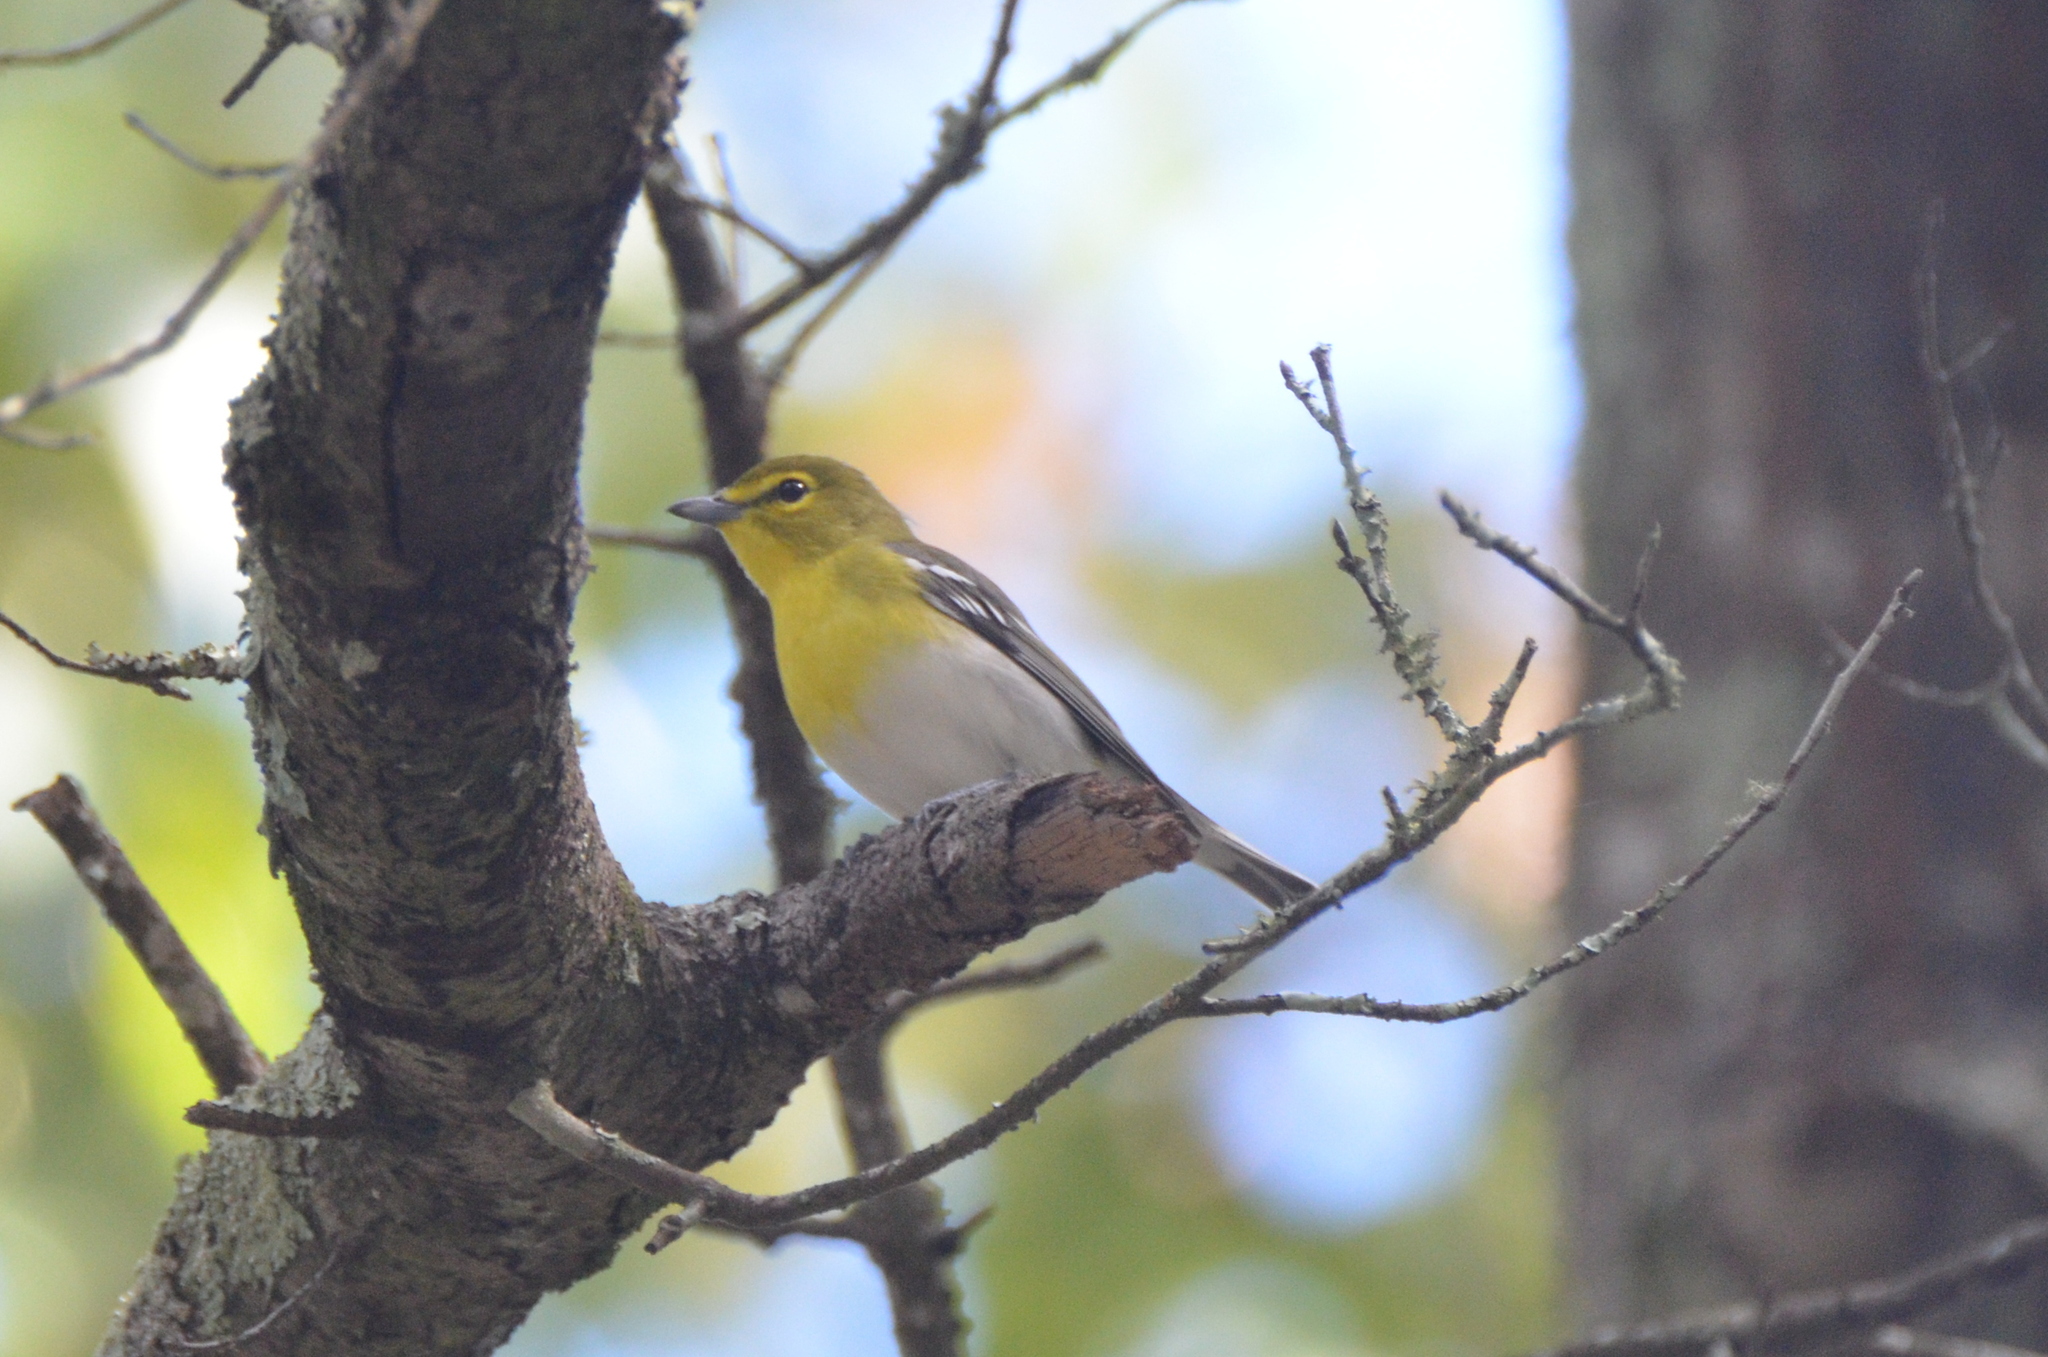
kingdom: Animalia
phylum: Chordata
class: Aves
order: Passeriformes
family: Vireonidae
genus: Vireo
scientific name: Vireo flavifrons
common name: Yellow-throated vireo
